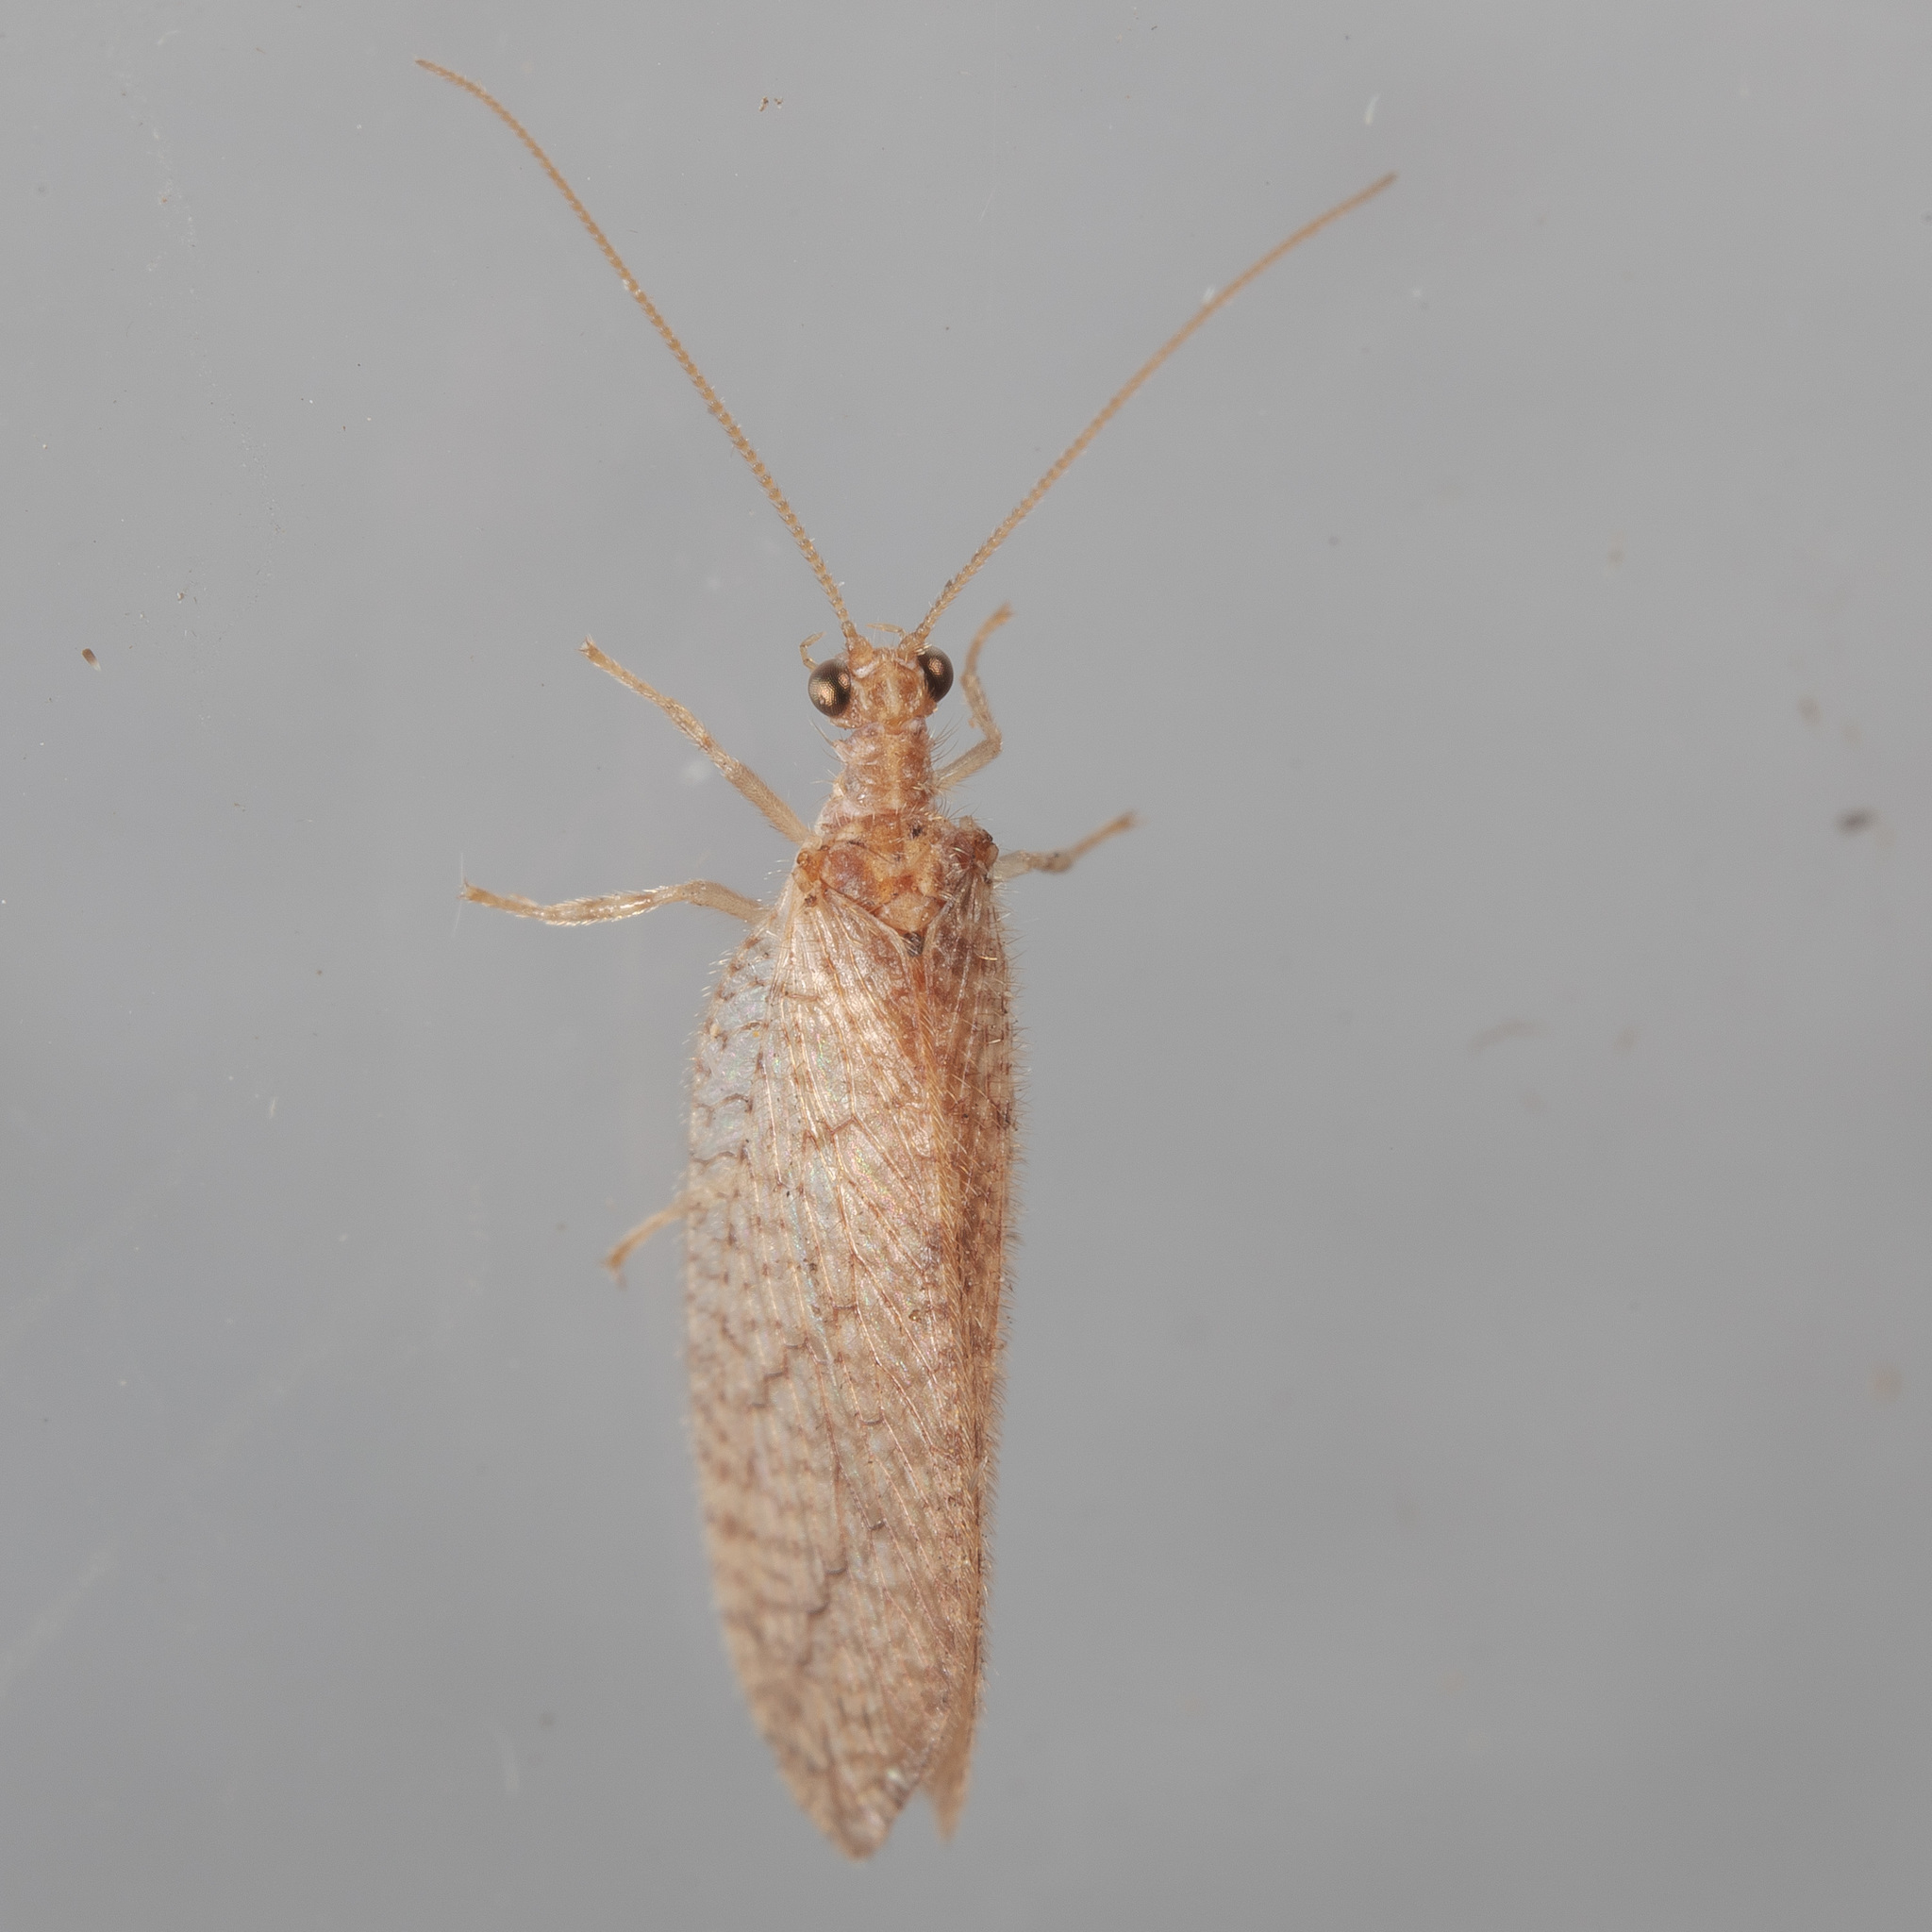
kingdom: Animalia
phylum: Arthropoda
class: Insecta
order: Neuroptera
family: Hemerobiidae
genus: Micromus
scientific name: Micromus posticus
